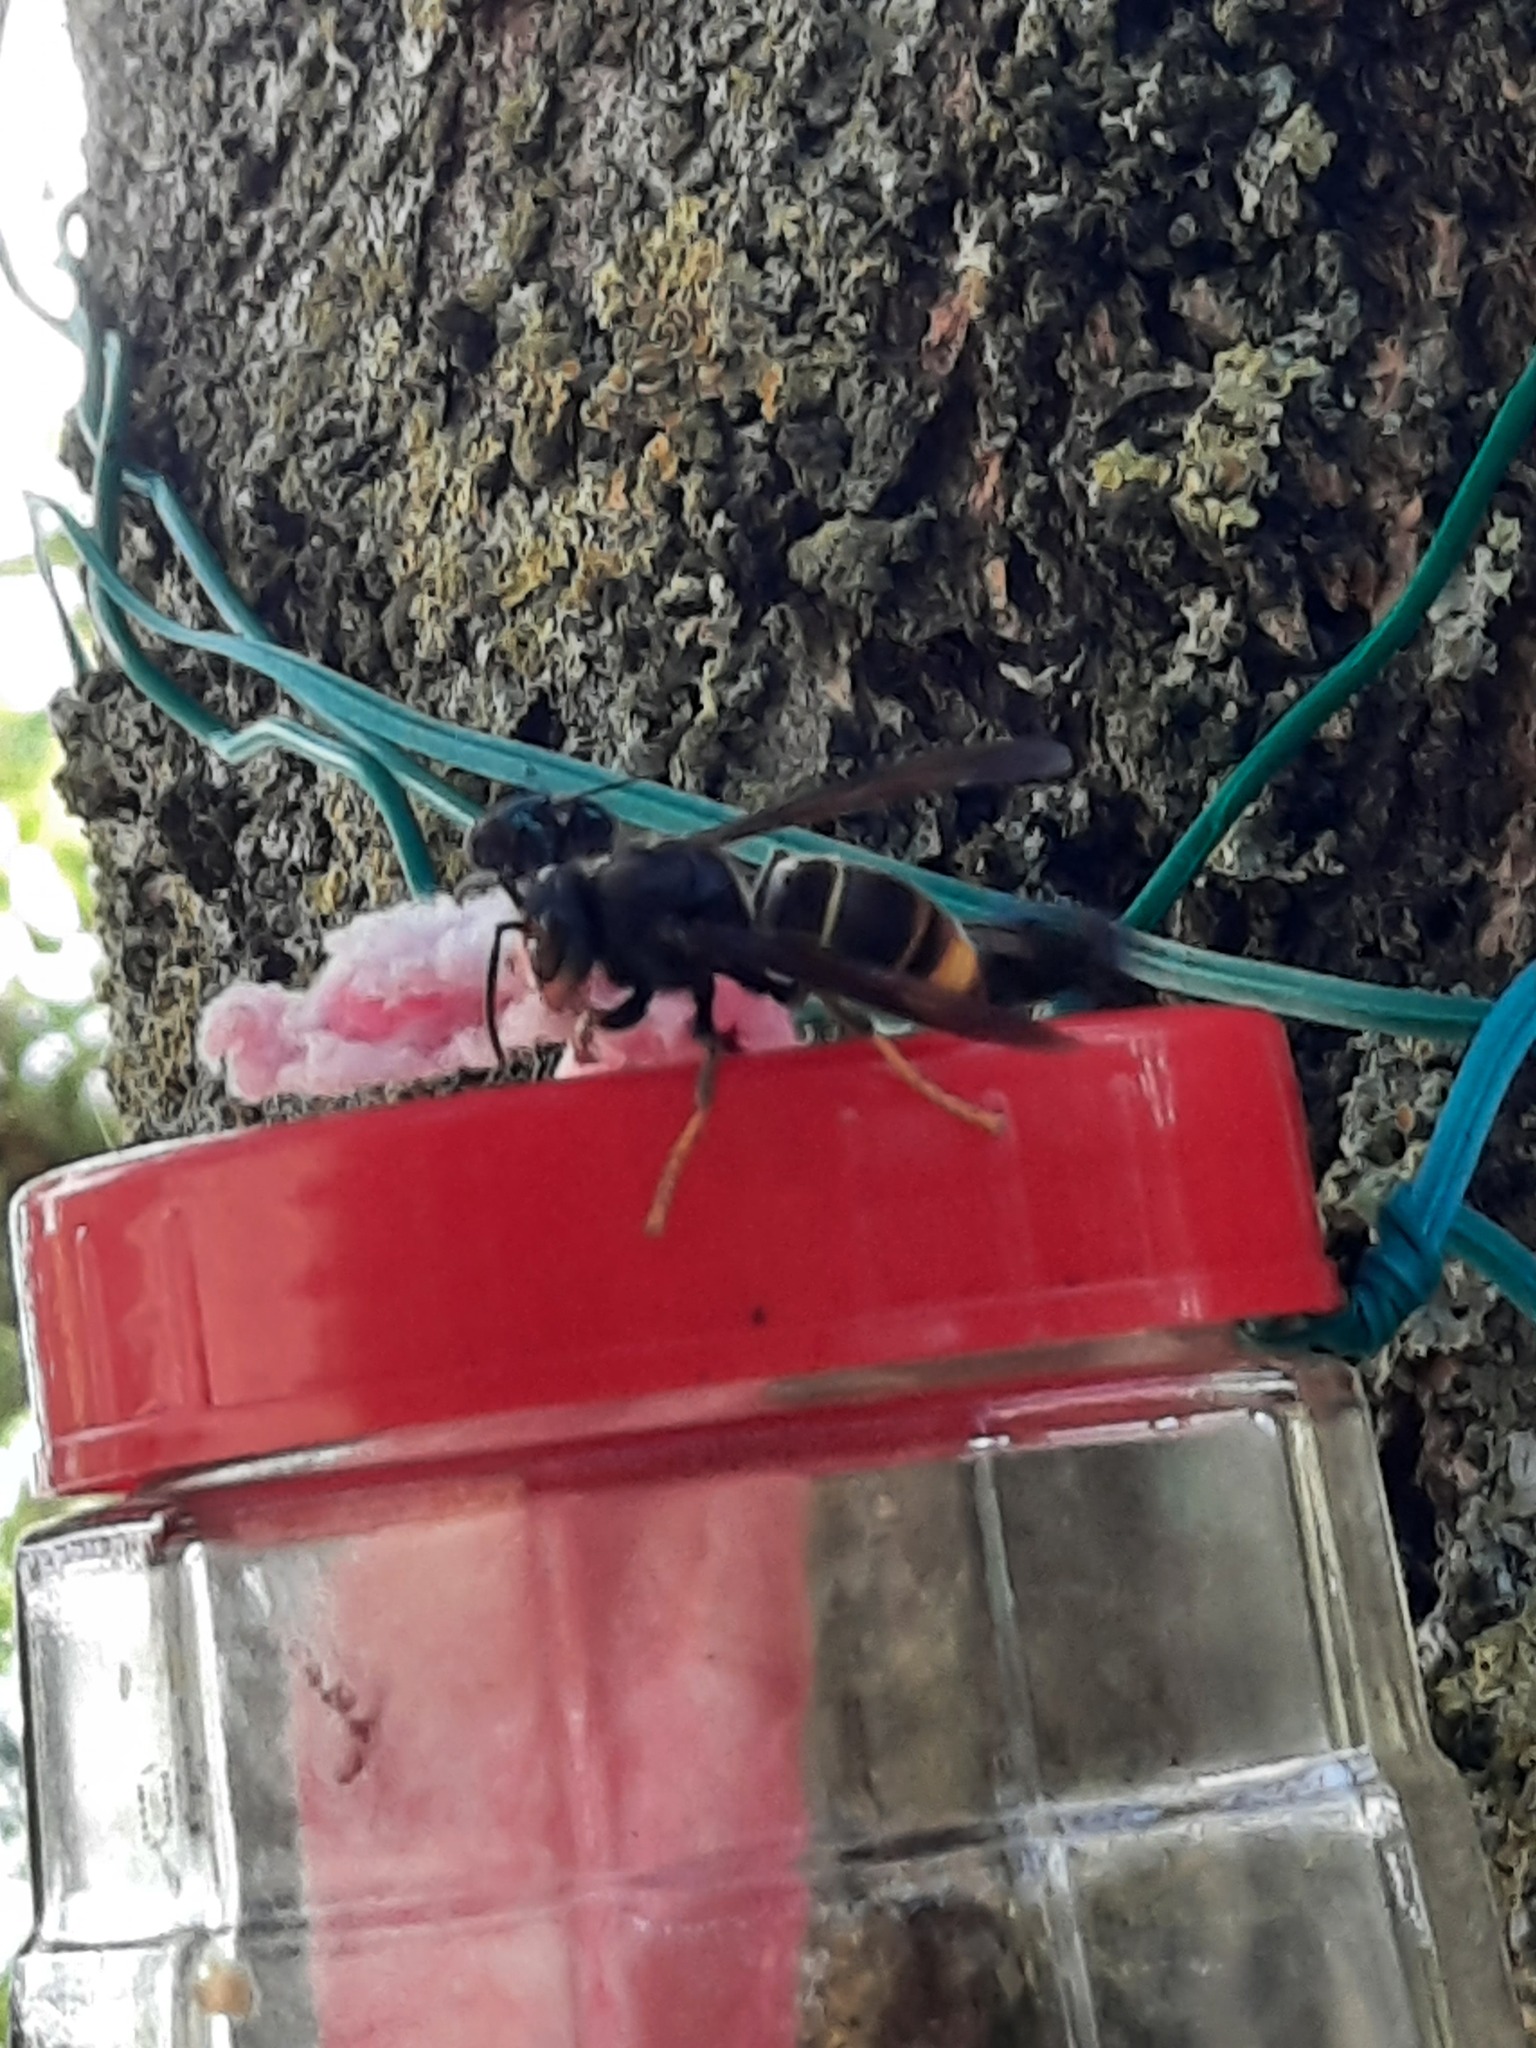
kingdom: Animalia
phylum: Arthropoda
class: Insecta
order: Hymenoptera
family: Vespidae
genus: Vespa
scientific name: Vespa velutina
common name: Asian hornet
